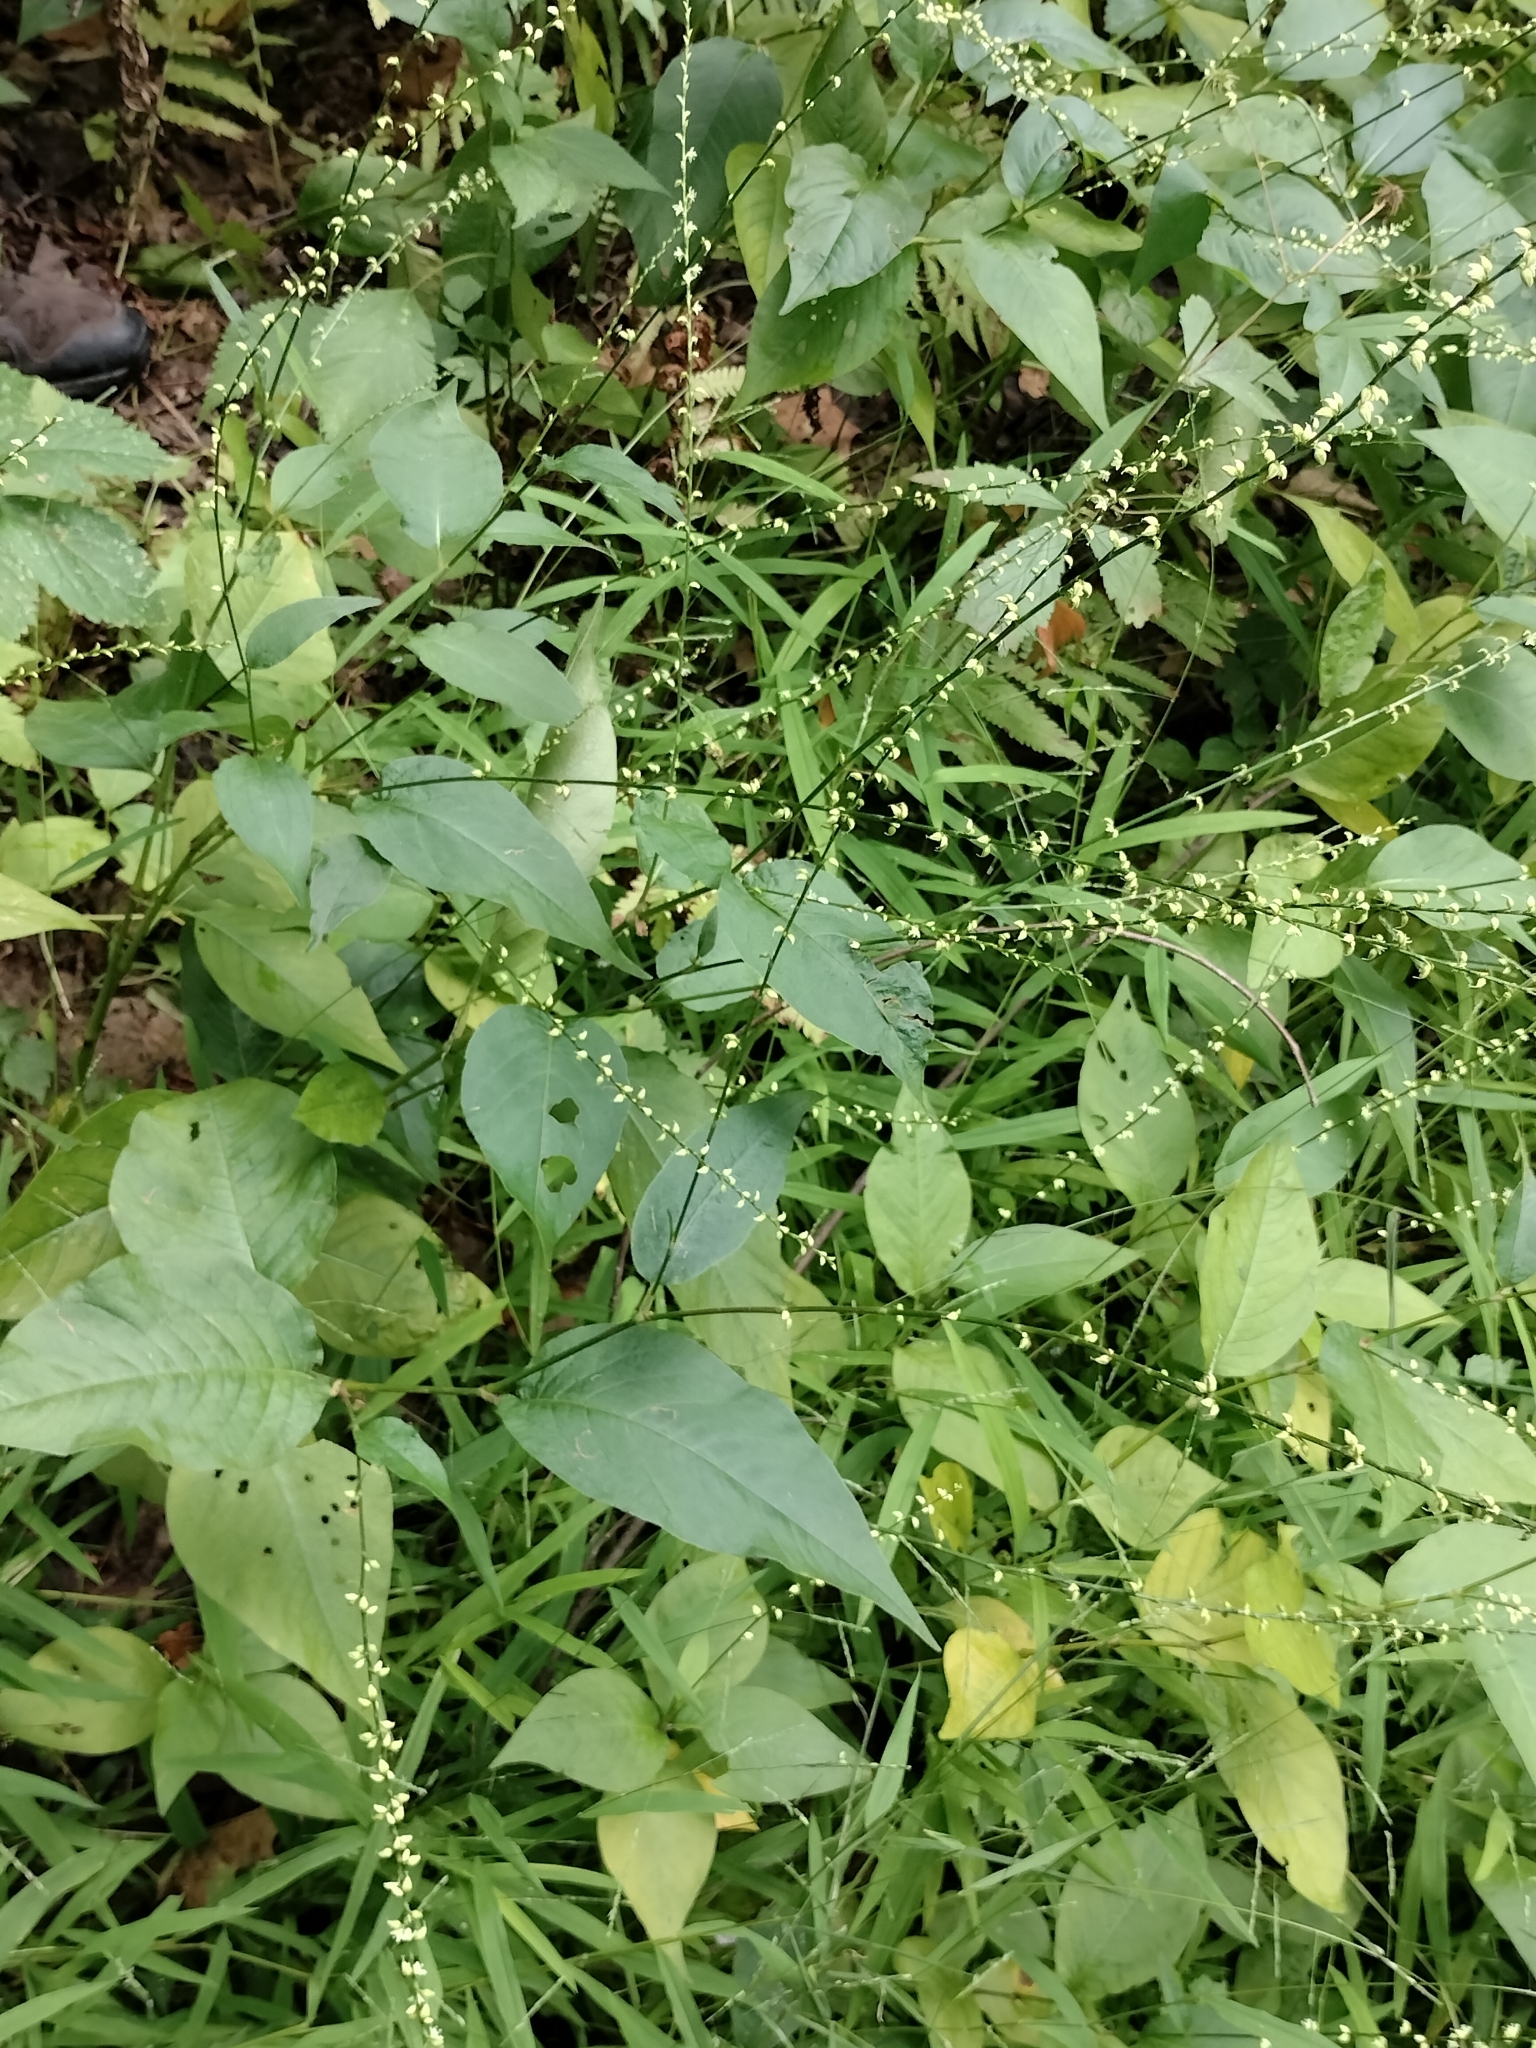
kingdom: Plantae
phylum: Tracheophyta
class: Magnoliopsida
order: Caryophyllales
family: Polygonaceae
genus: Persicaria
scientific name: Persicaria virginiana
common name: Jumpseed
